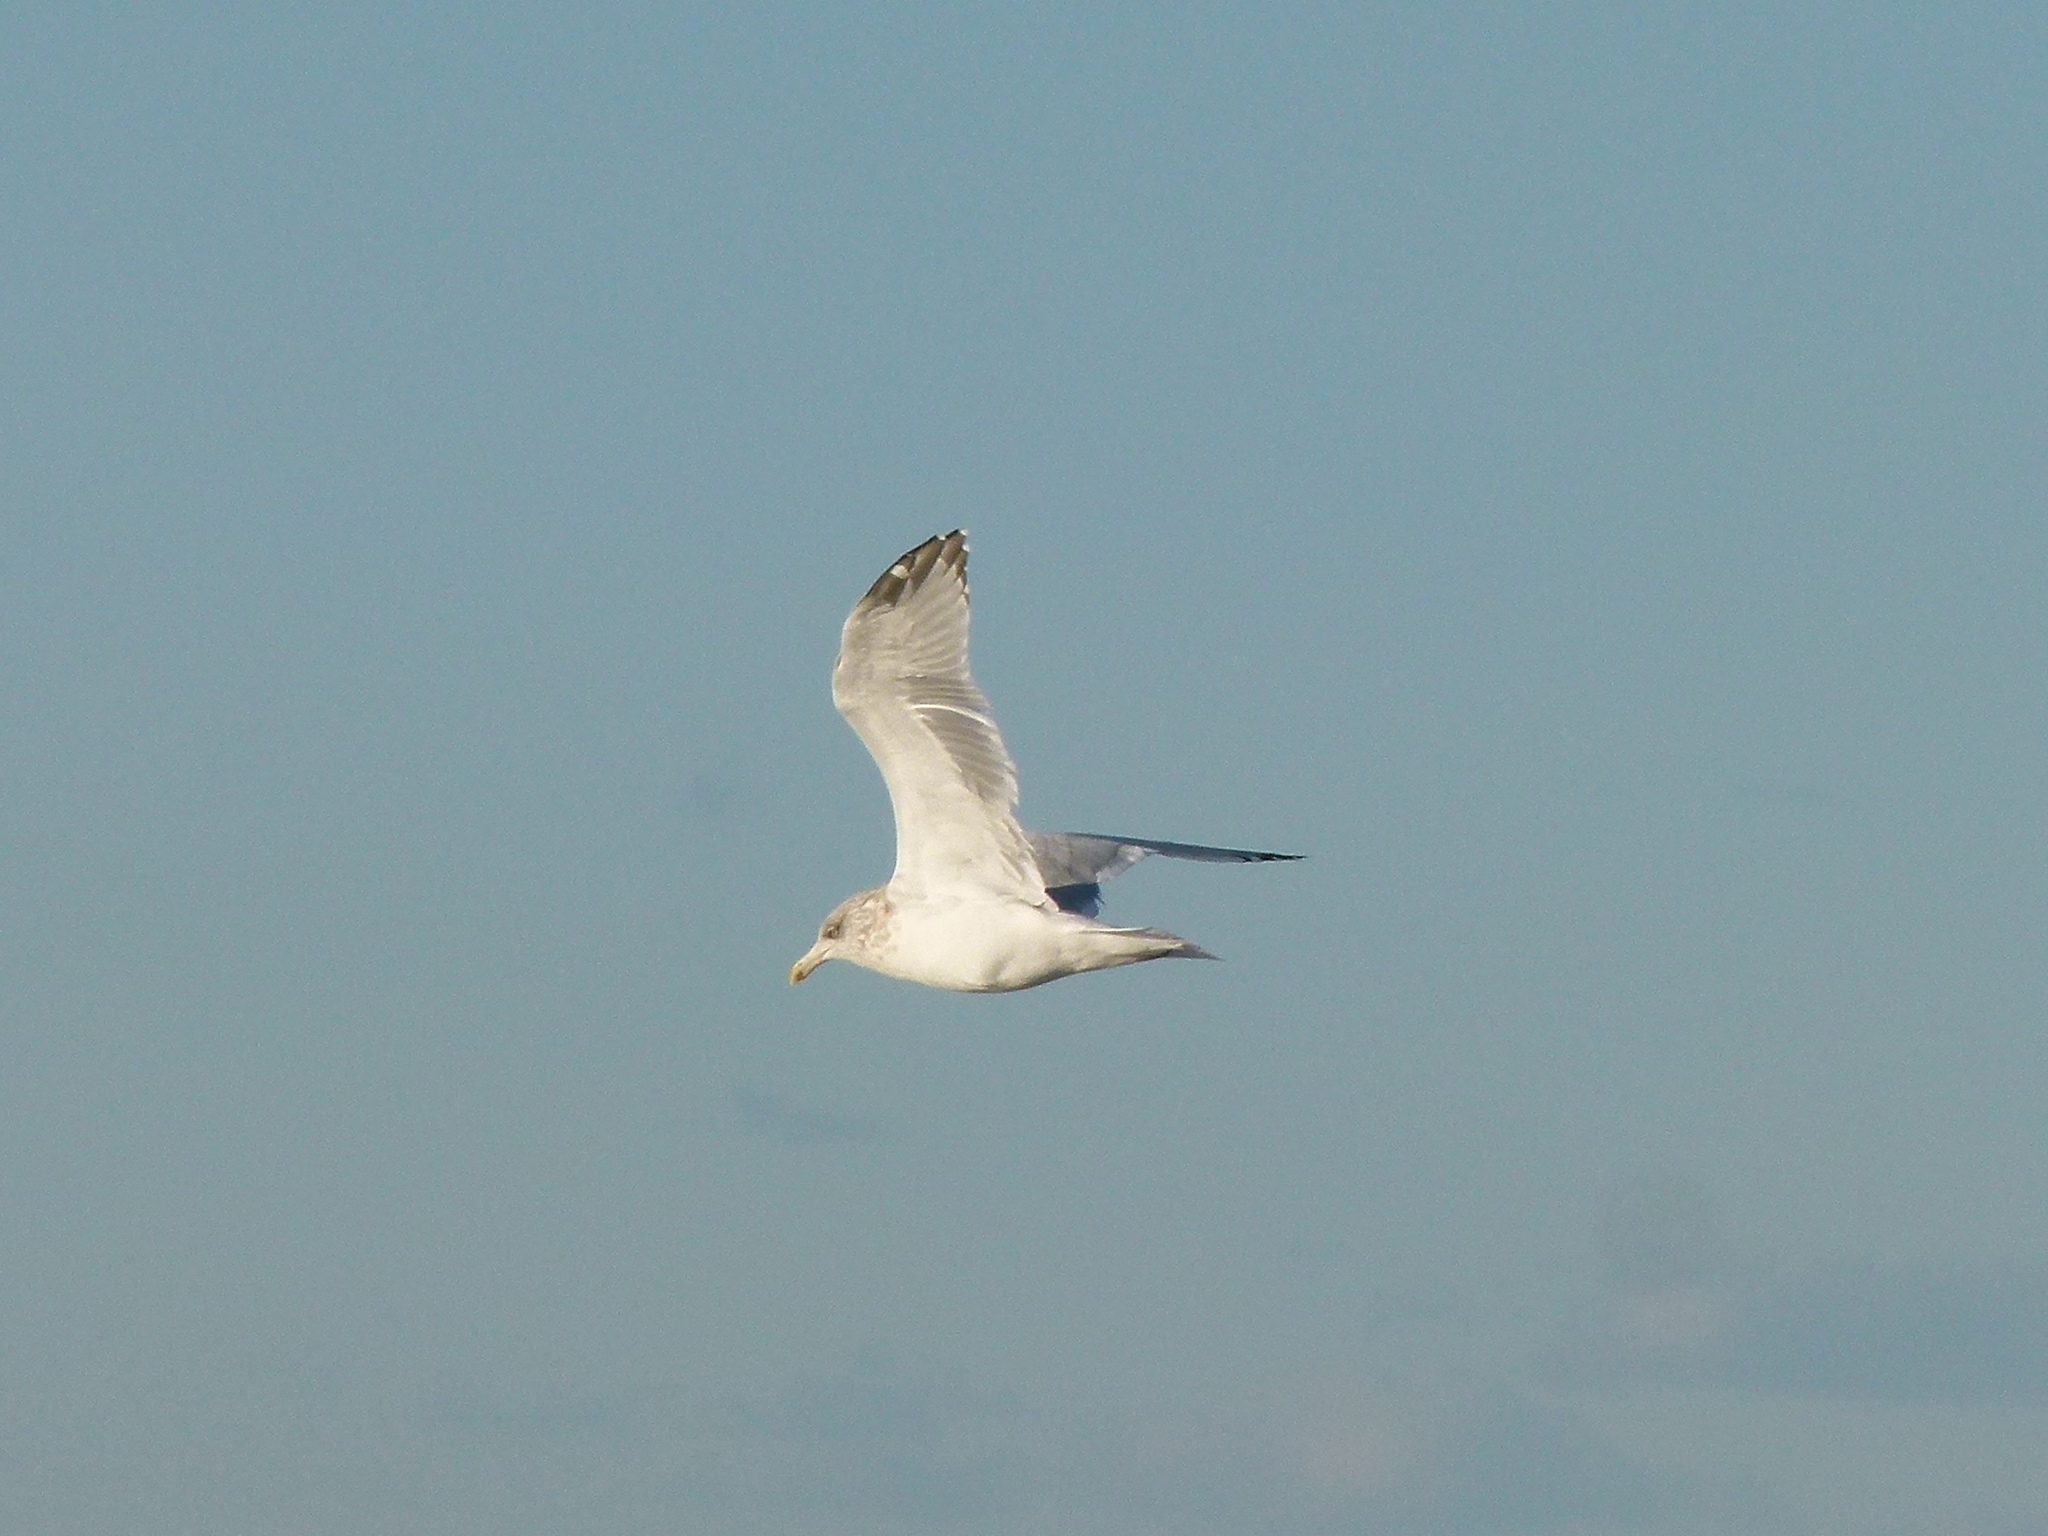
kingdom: Animalia
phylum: Chordata
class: Aves
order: Charadriiformes
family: Laridae
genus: Larus
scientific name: Larus argentatus
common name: Herring gull
